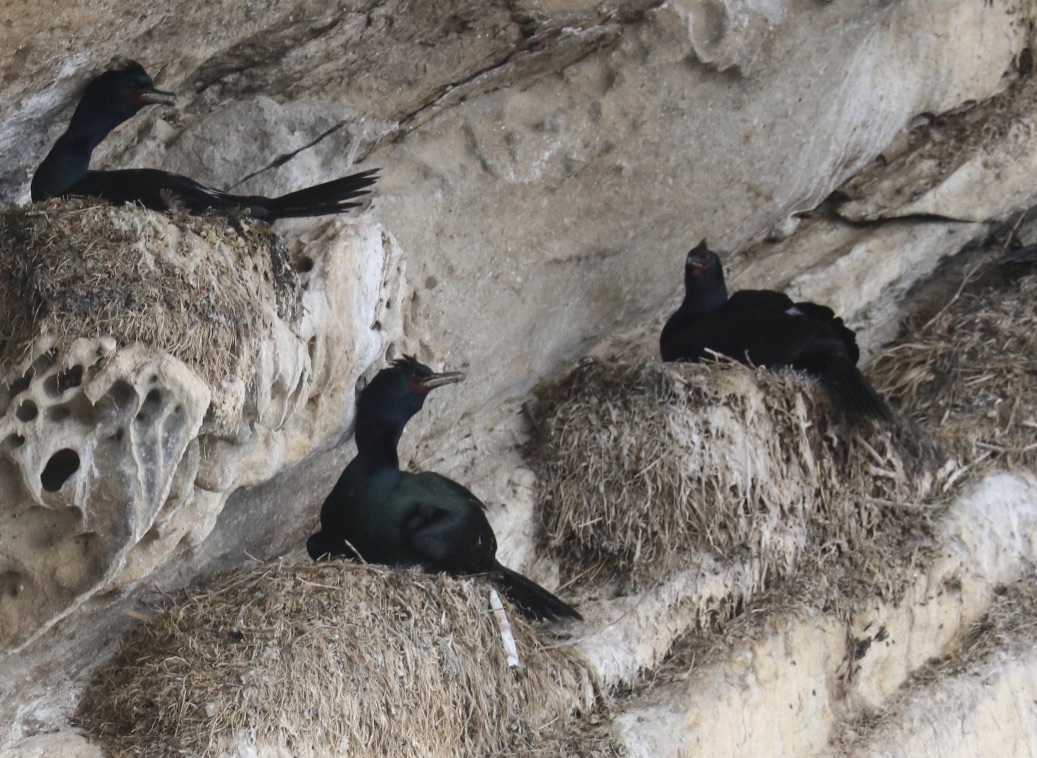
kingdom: Animalia
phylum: Chordata
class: Aves
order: Suliformes
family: Phalacrocoracidae
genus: Urile
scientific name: Urile penicillatus
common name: Brandt's cormorant
